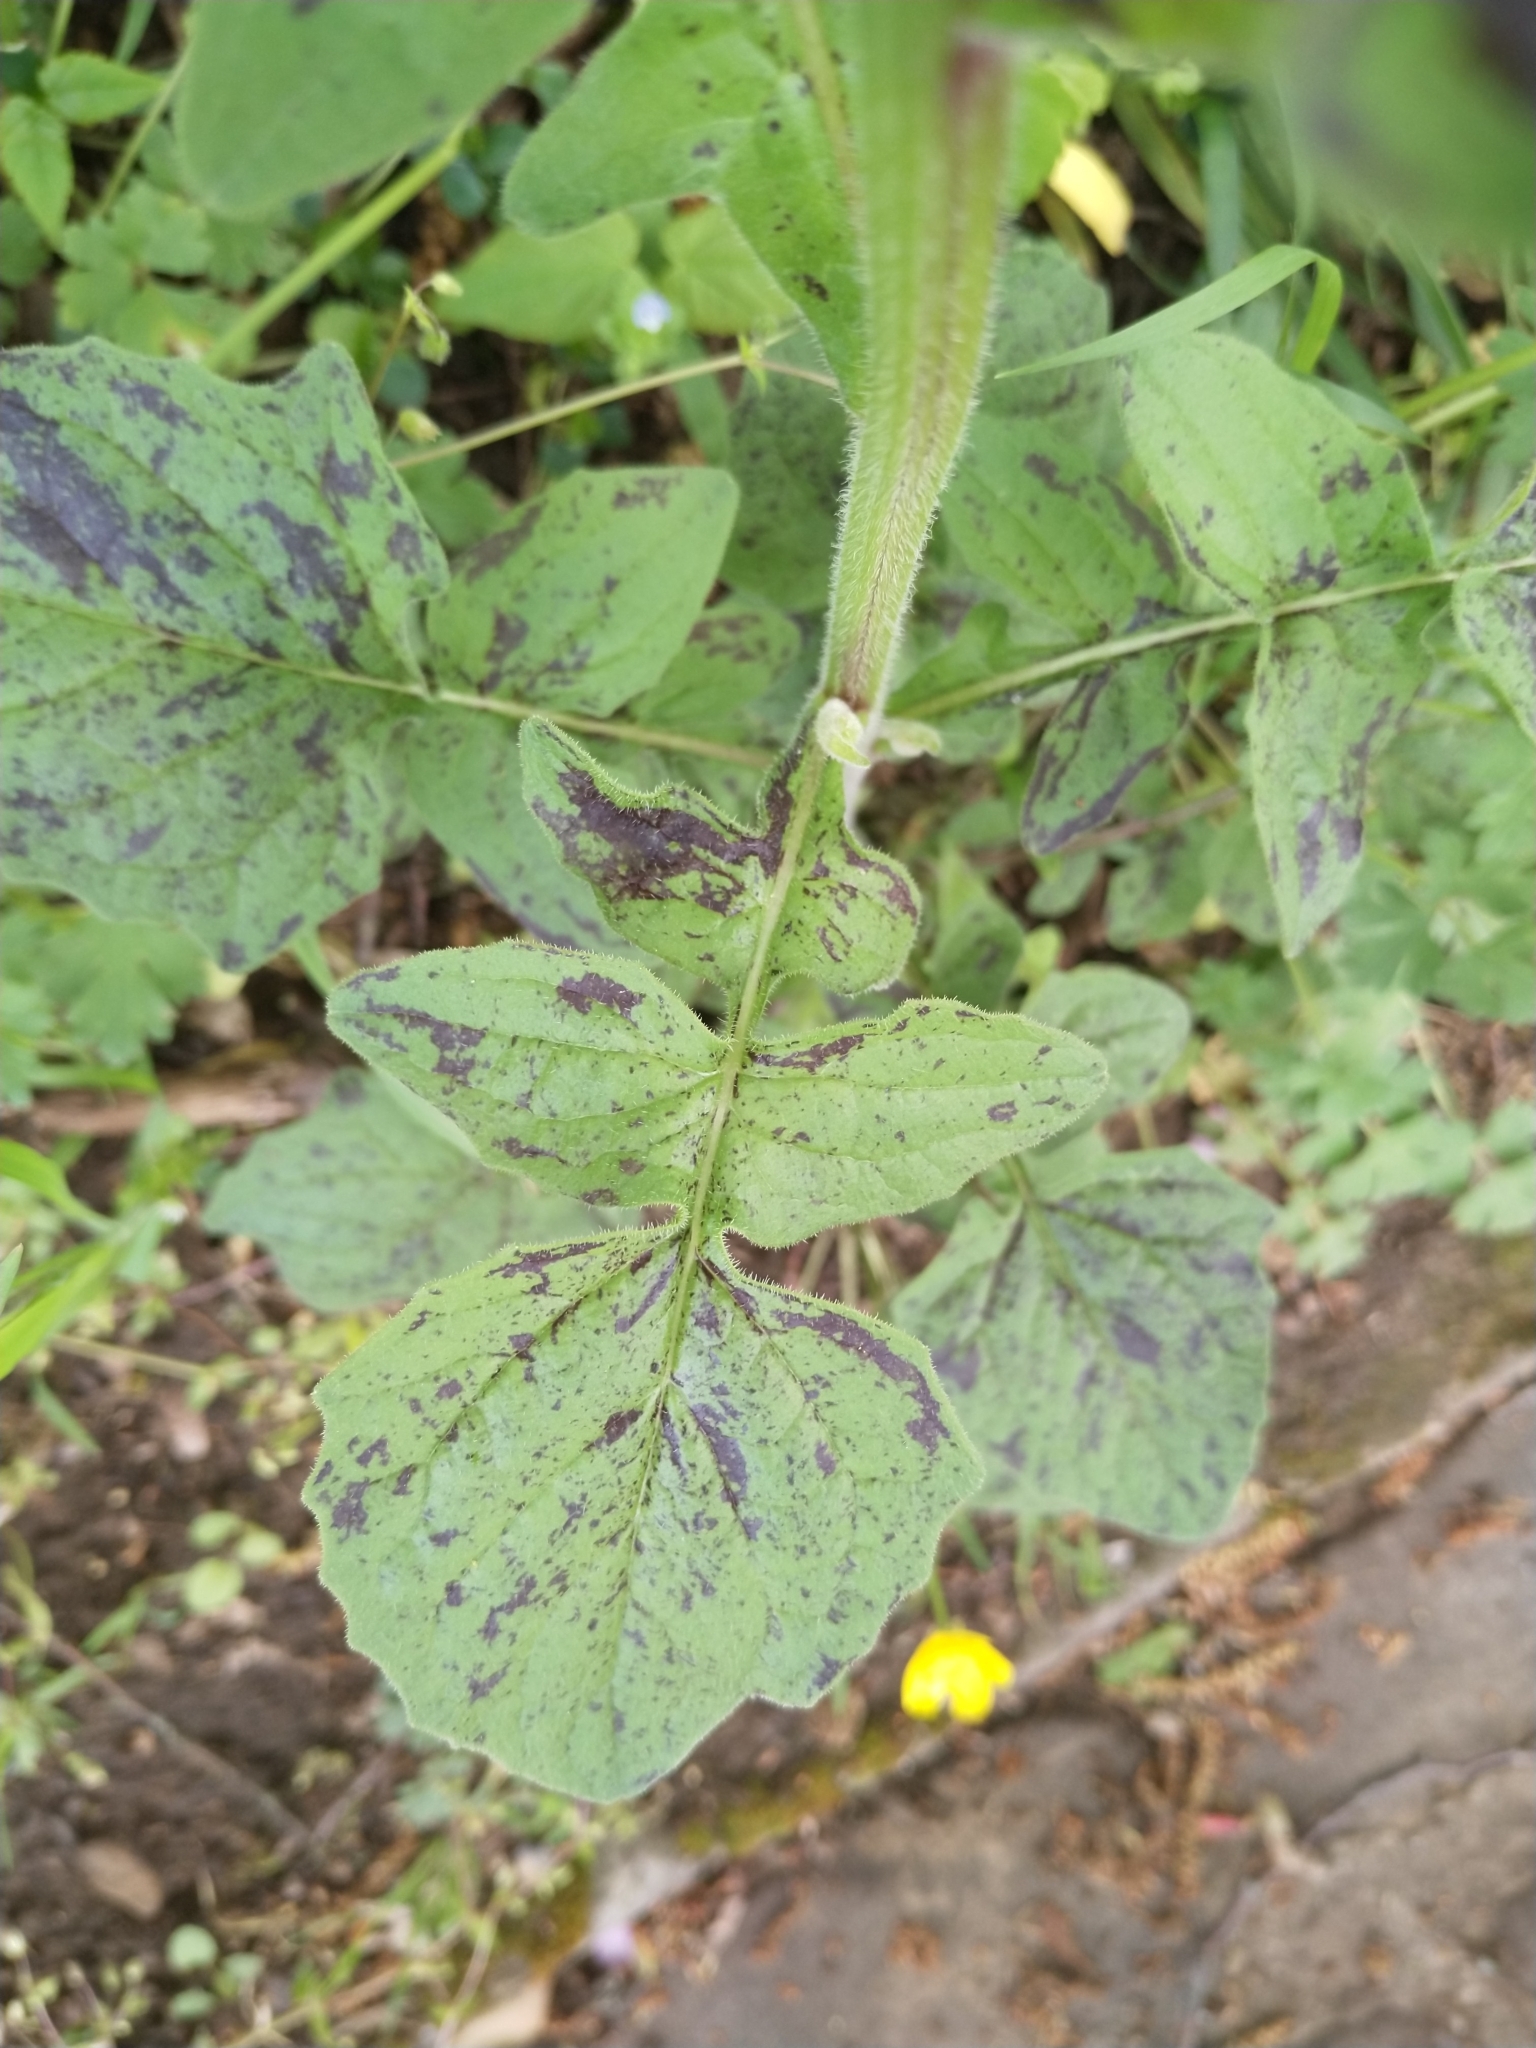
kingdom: Plantae
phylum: Tracheophyta
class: Magnoliopsida
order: Asterales
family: Asteraceae
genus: Lapsana
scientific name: Lapsana communis
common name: Nipplewort
